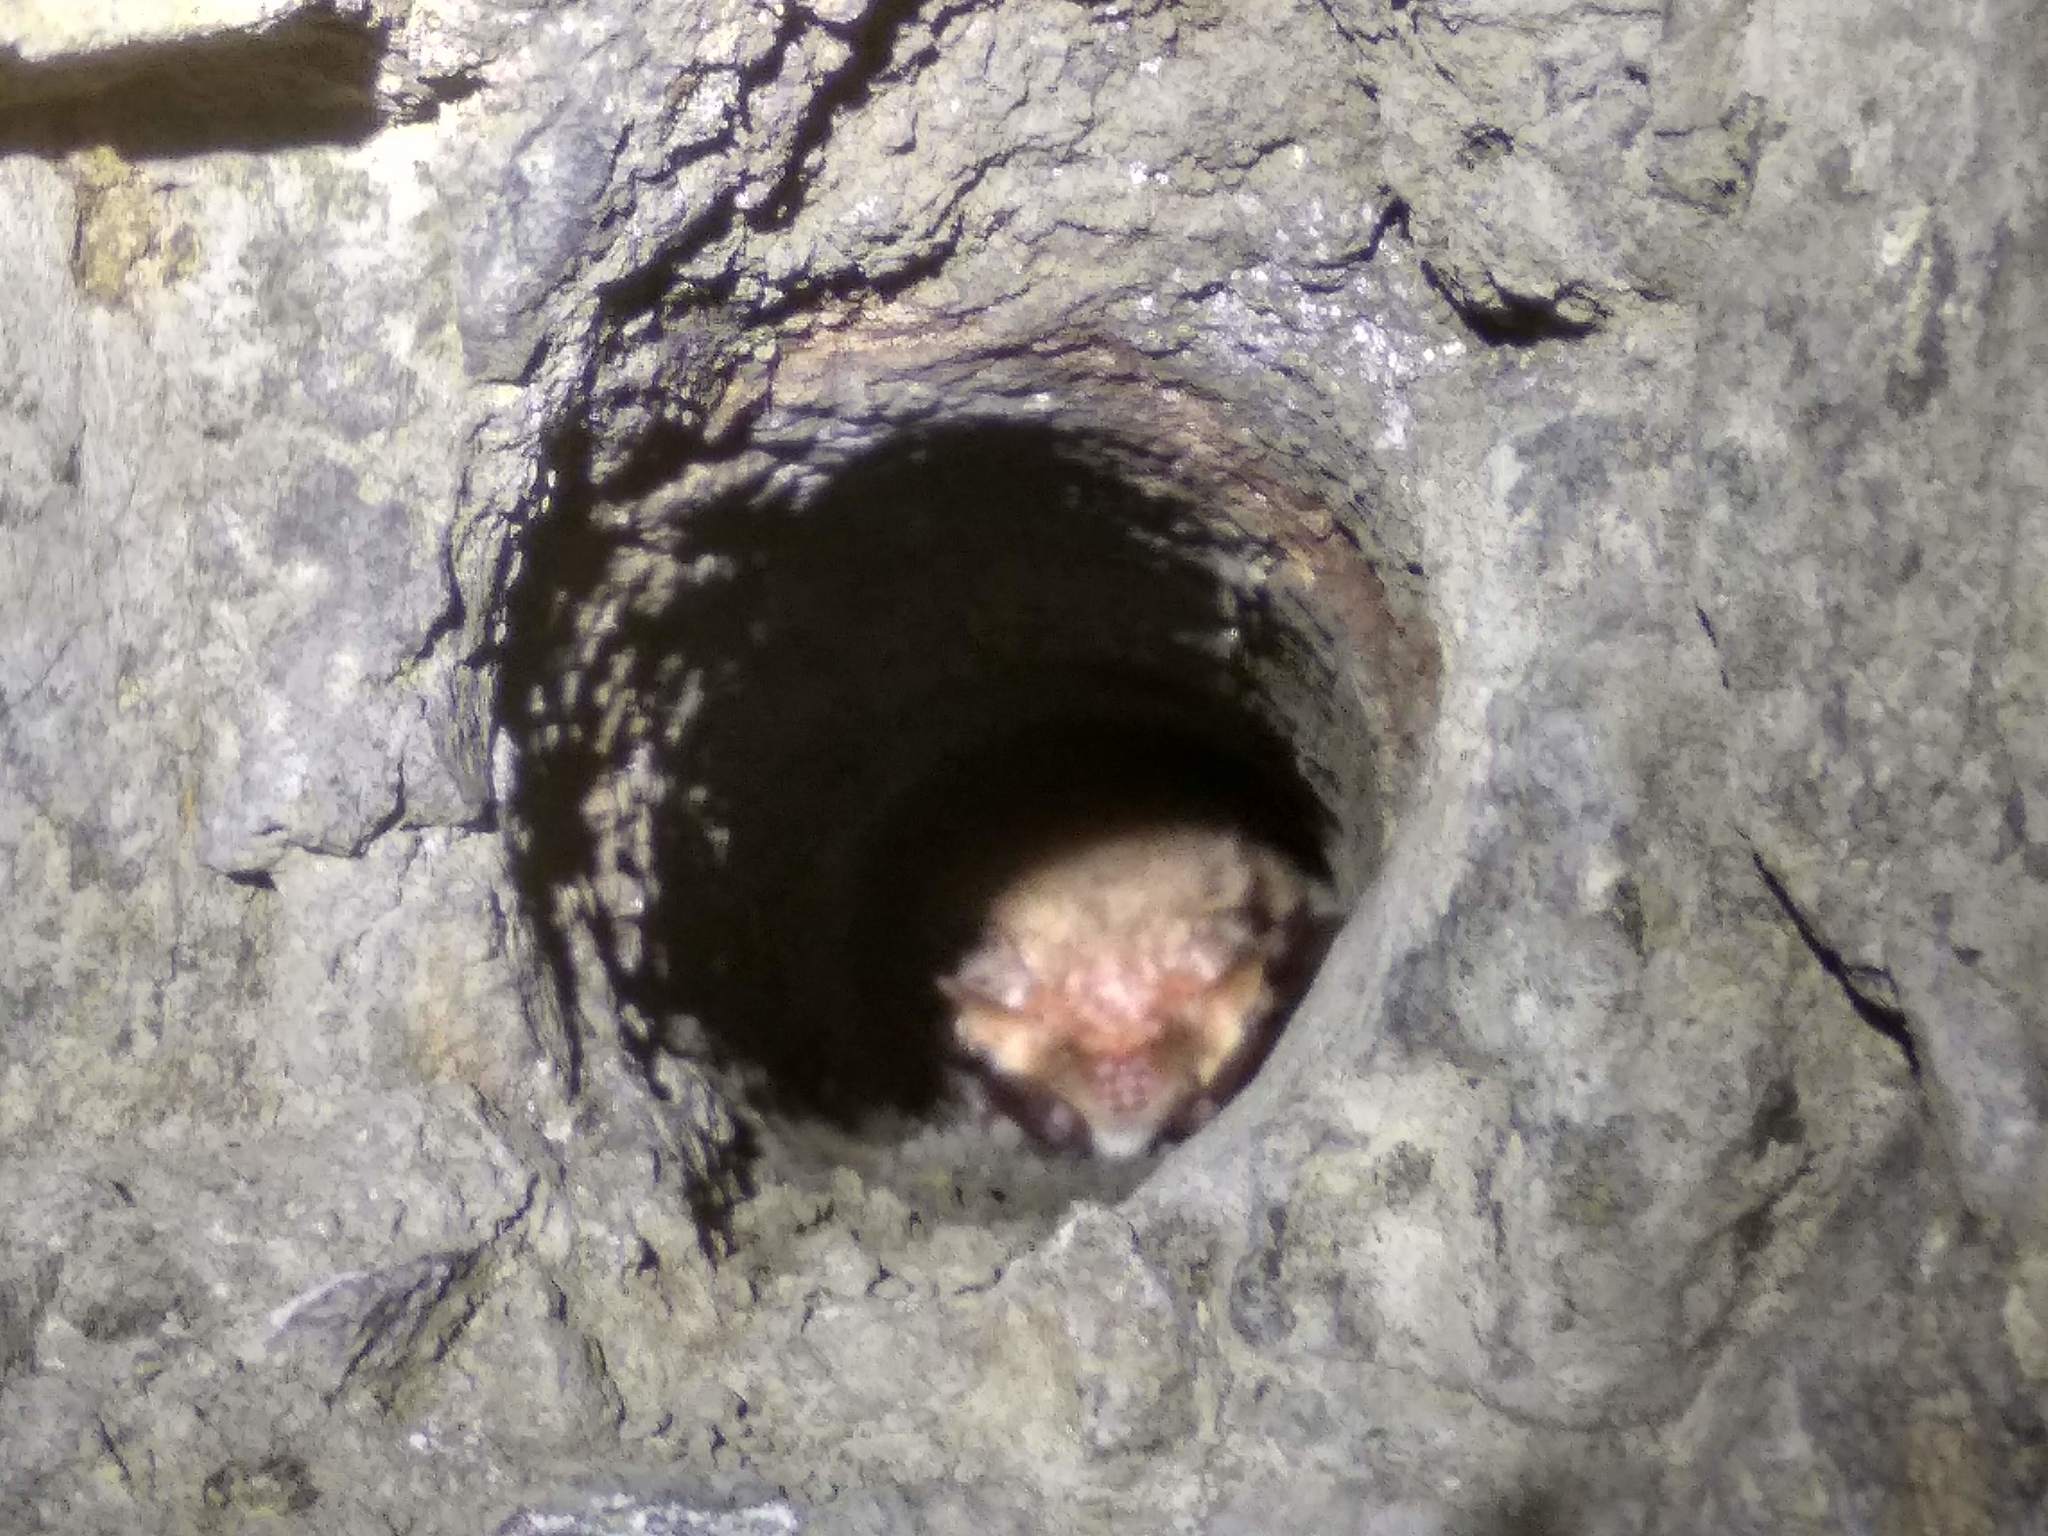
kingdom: Animalia
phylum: Chordata
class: Mammalia
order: Chiroptera
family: Vespertilionidae
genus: Plecotus
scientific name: Plecotus auritus
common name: Brown long-eared bat
